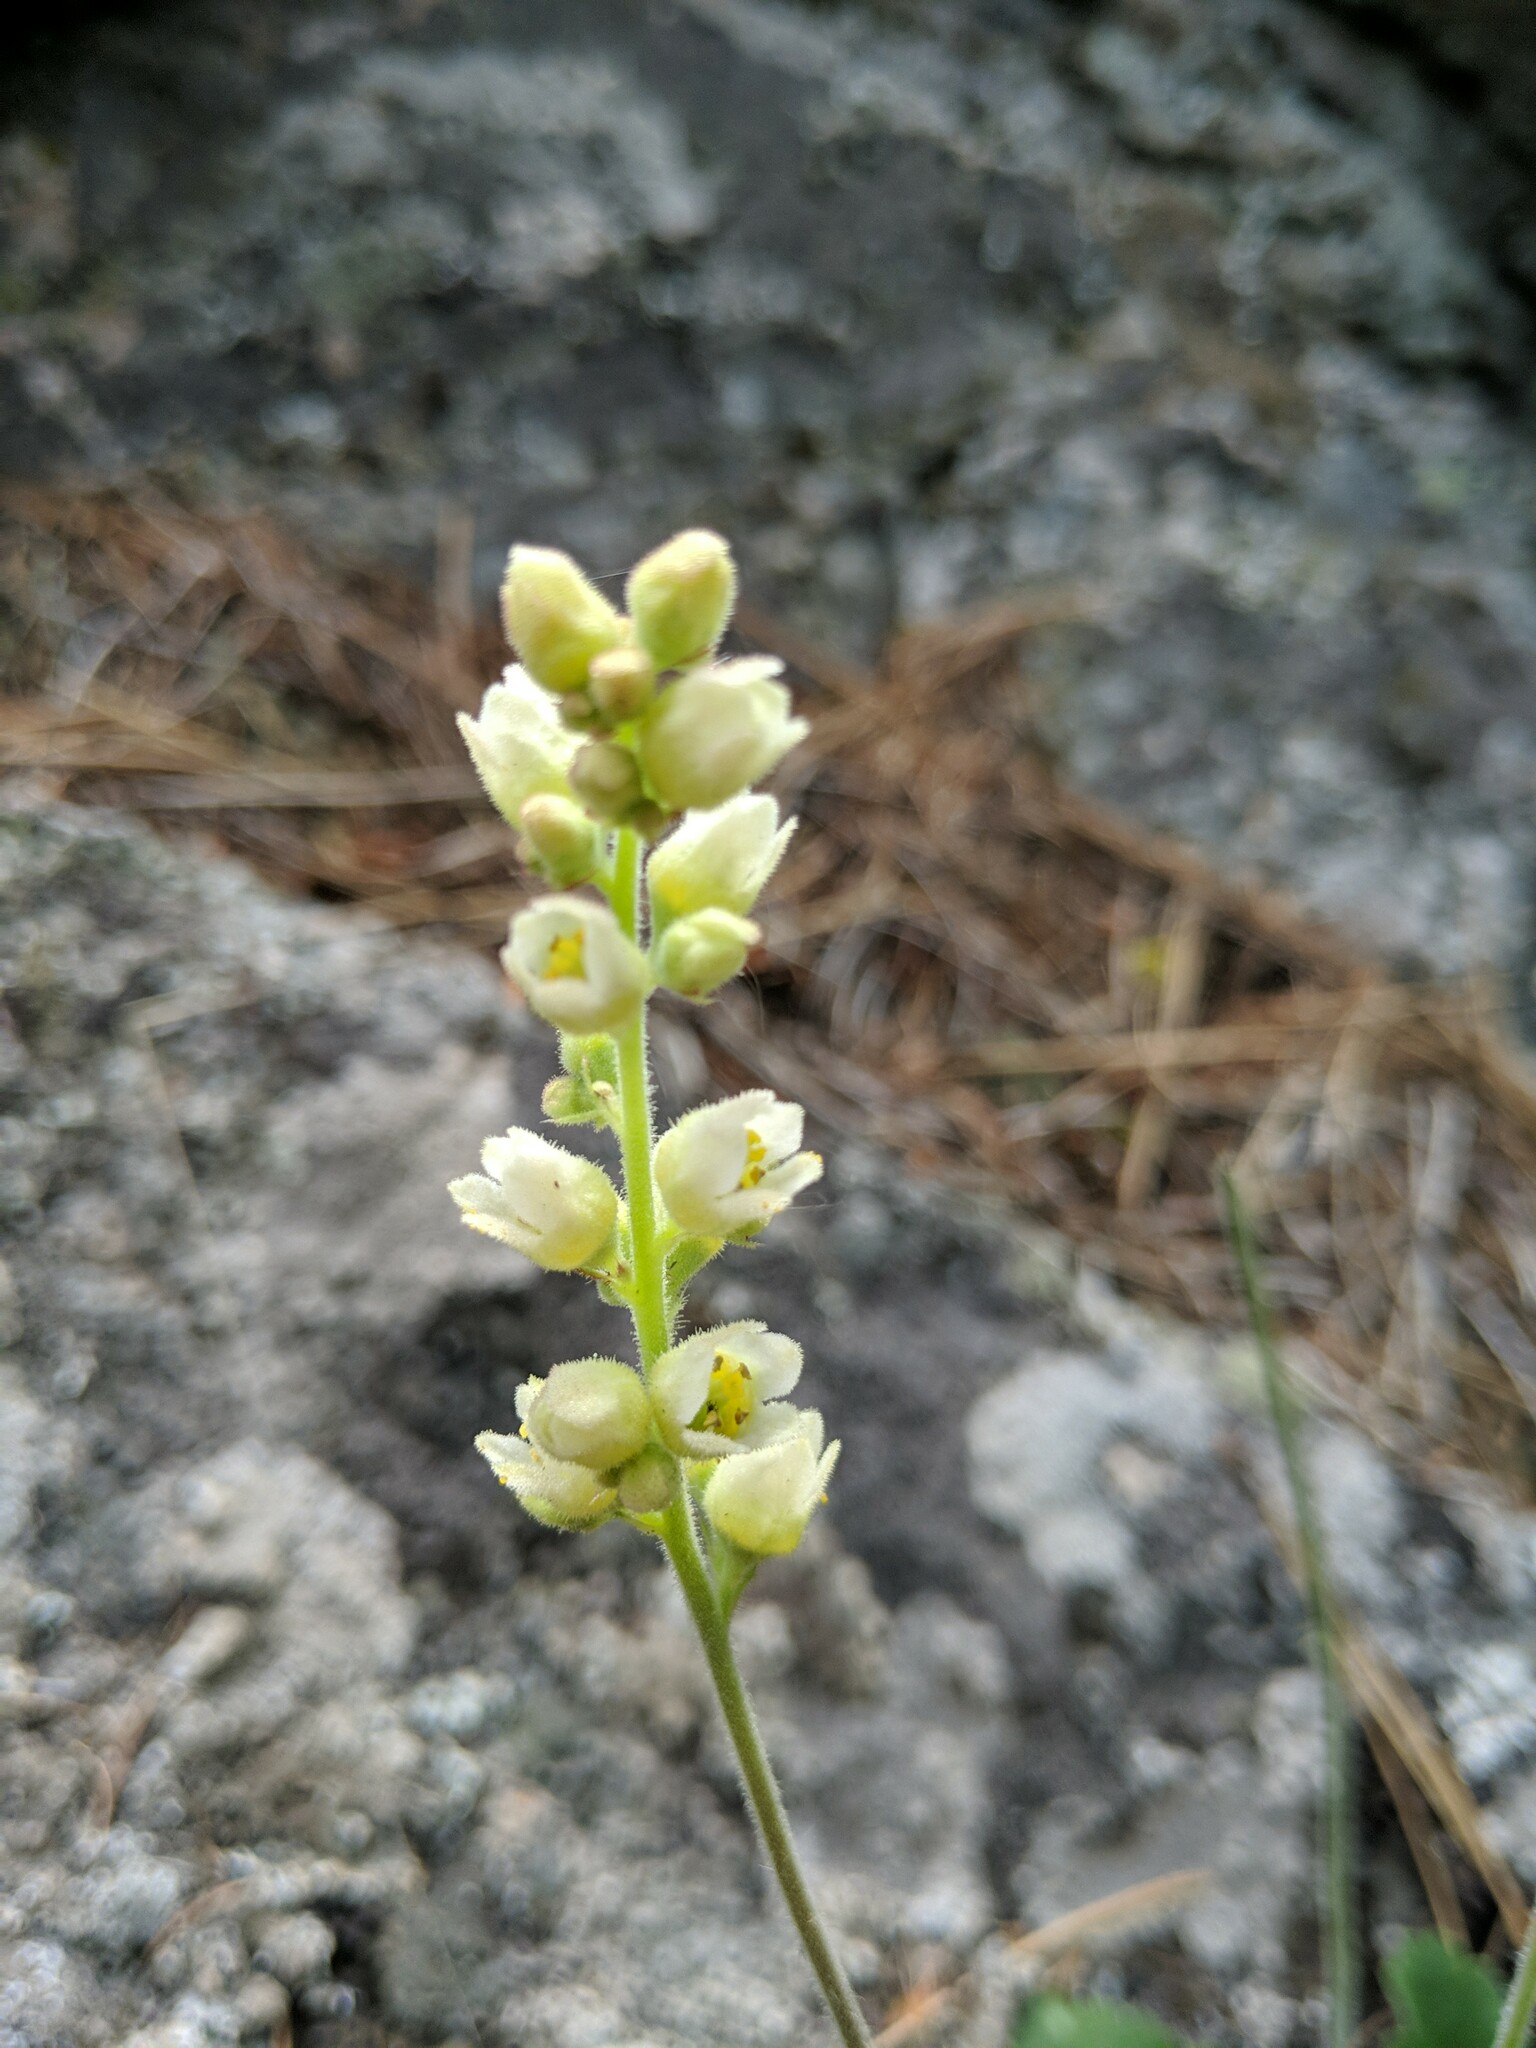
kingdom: Plantae
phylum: Tracheophyta
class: Magnoliopsida
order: Saxifragales
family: Saxifragaceae
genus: Heuchera
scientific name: Heuchera cylindrica
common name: Mat alumroot
